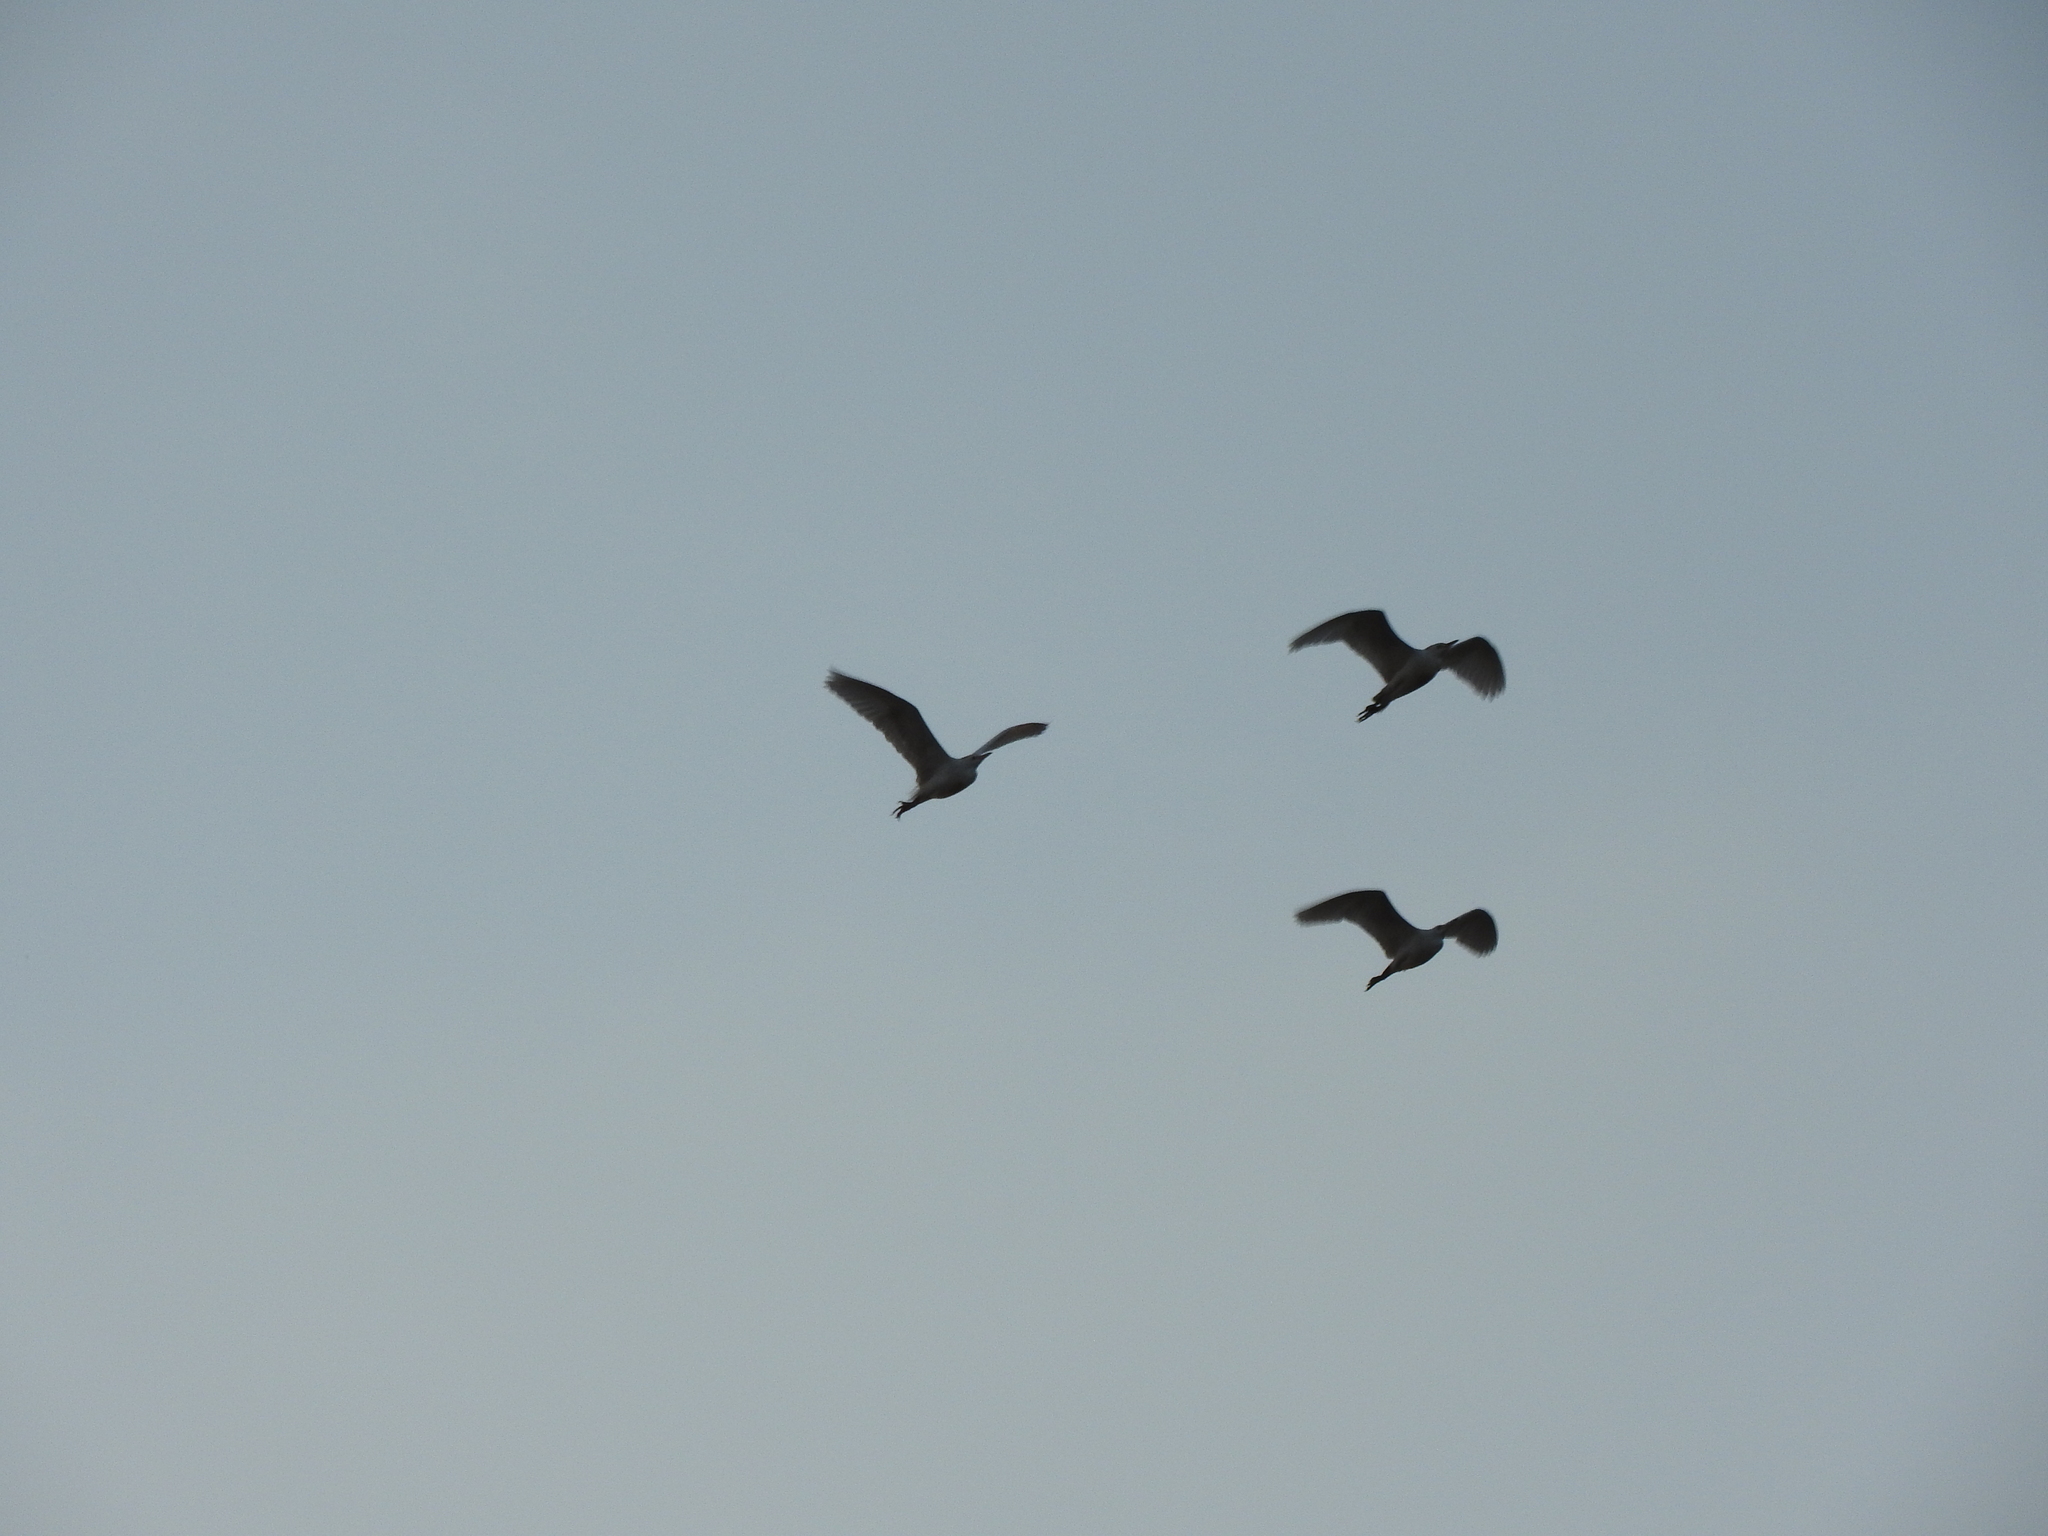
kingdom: Animalia
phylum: Chordata
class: Aves
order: Pelecaniformes
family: Ardeidae
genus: Bubulcus
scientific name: Bubulcus ibis
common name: Cattle egret
